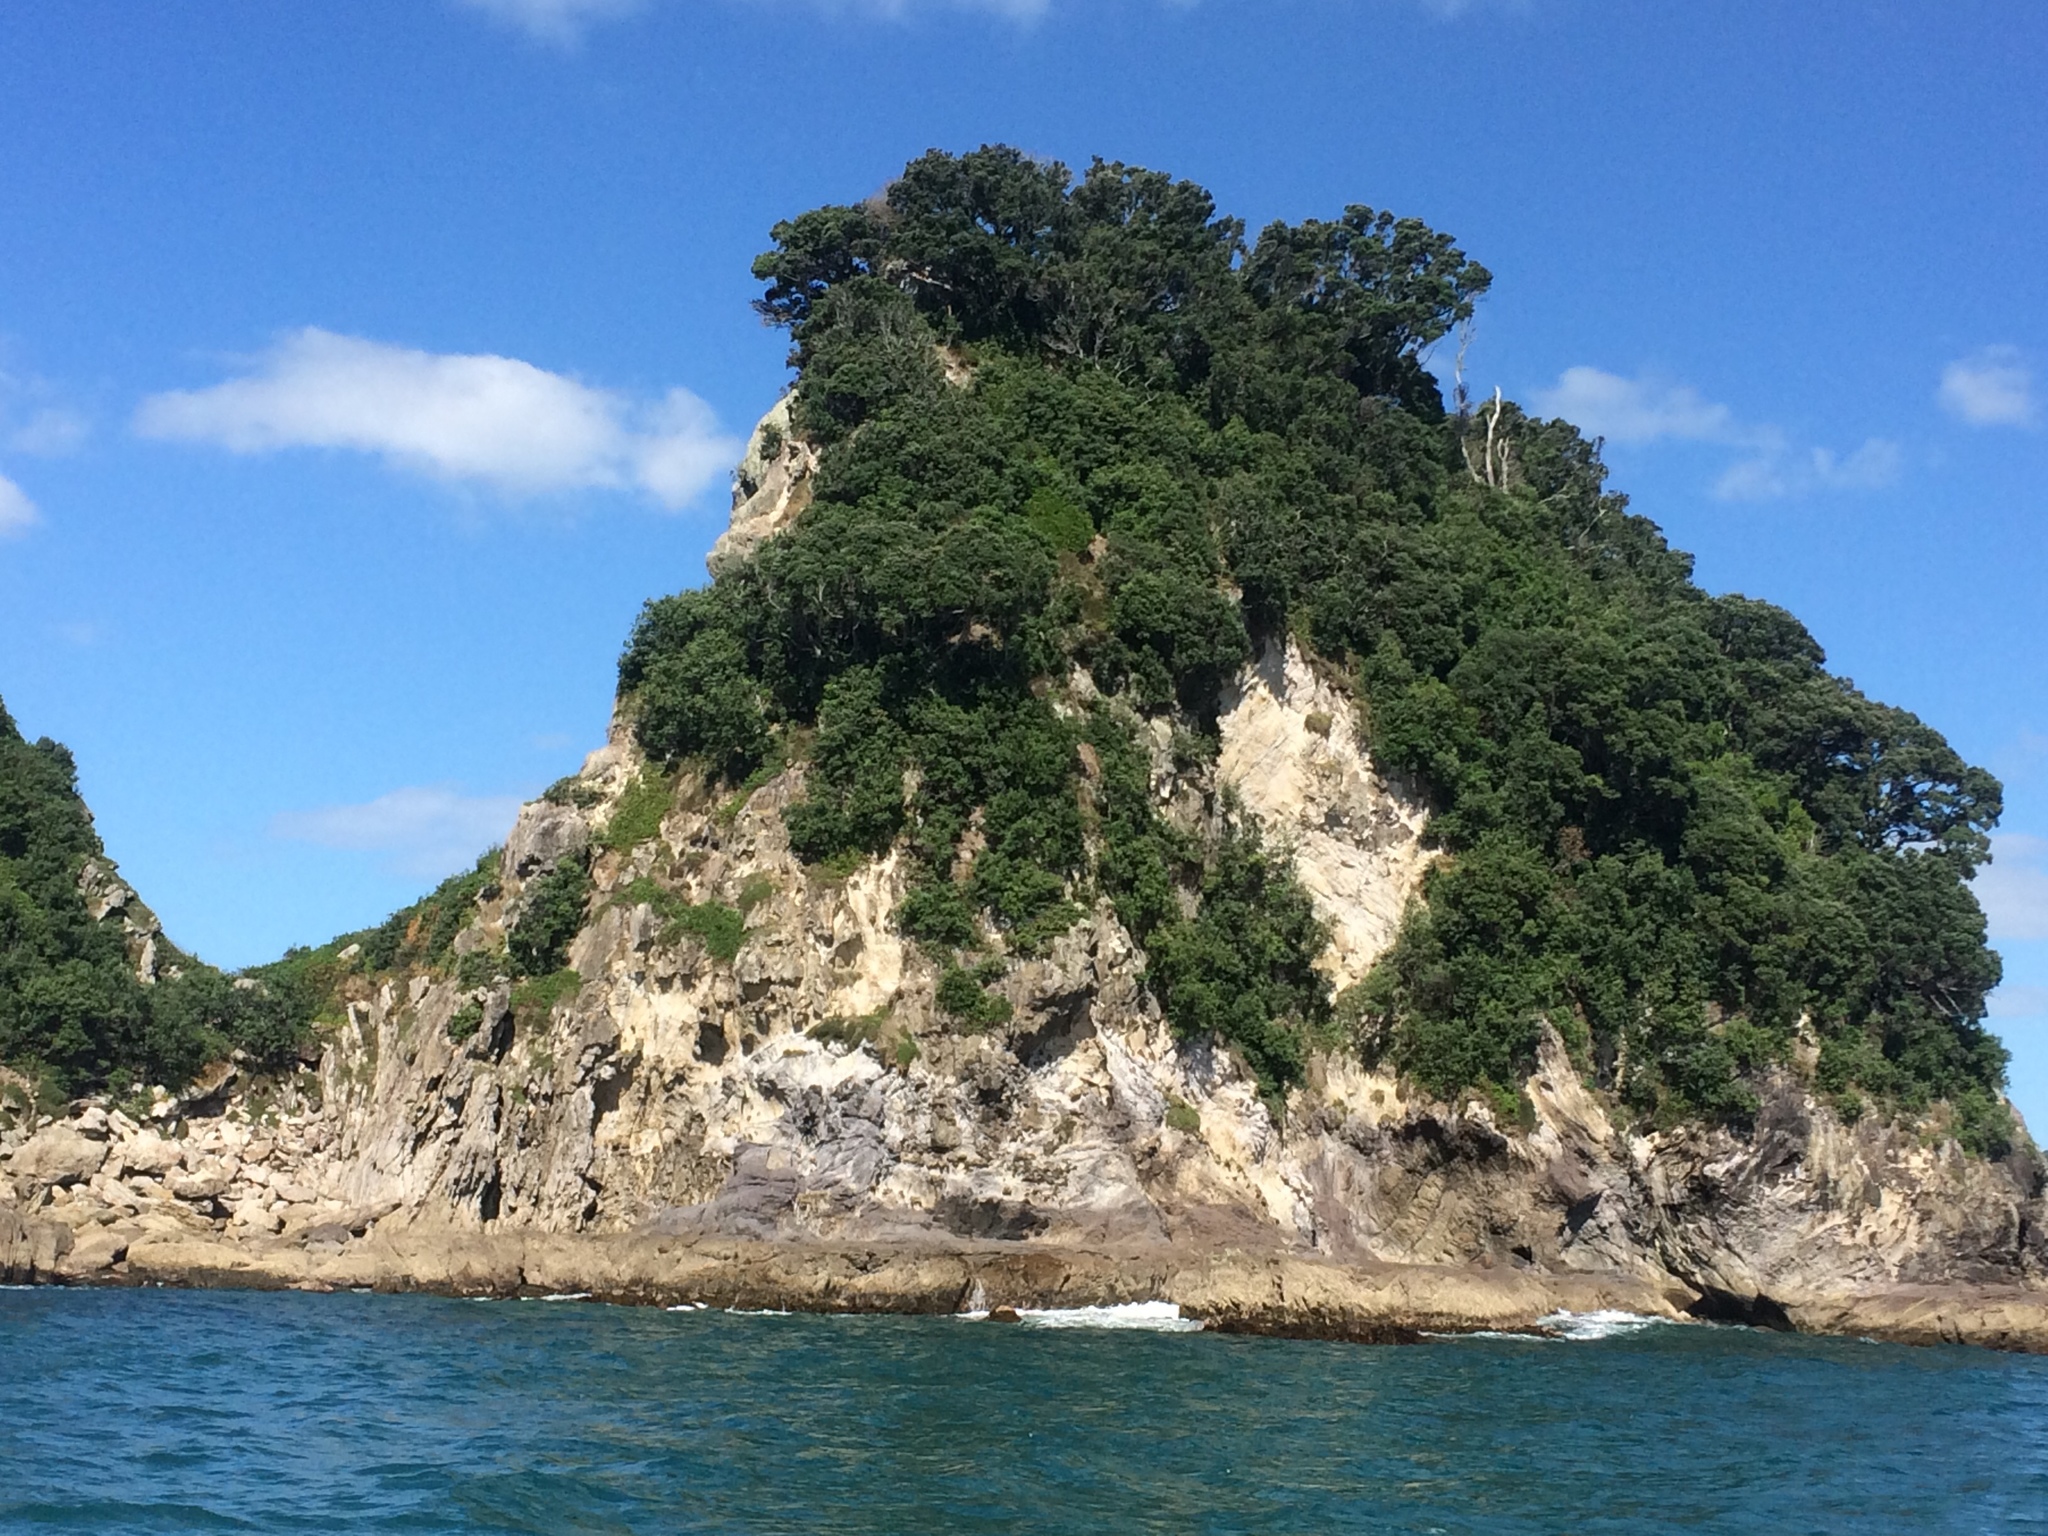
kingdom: Plantae
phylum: Tracheophyta
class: Magnoliopsida
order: Myrtales
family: Myrtaceae
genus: Metrosideros
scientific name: Metrosideros excelsa
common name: New zealand christmastree
